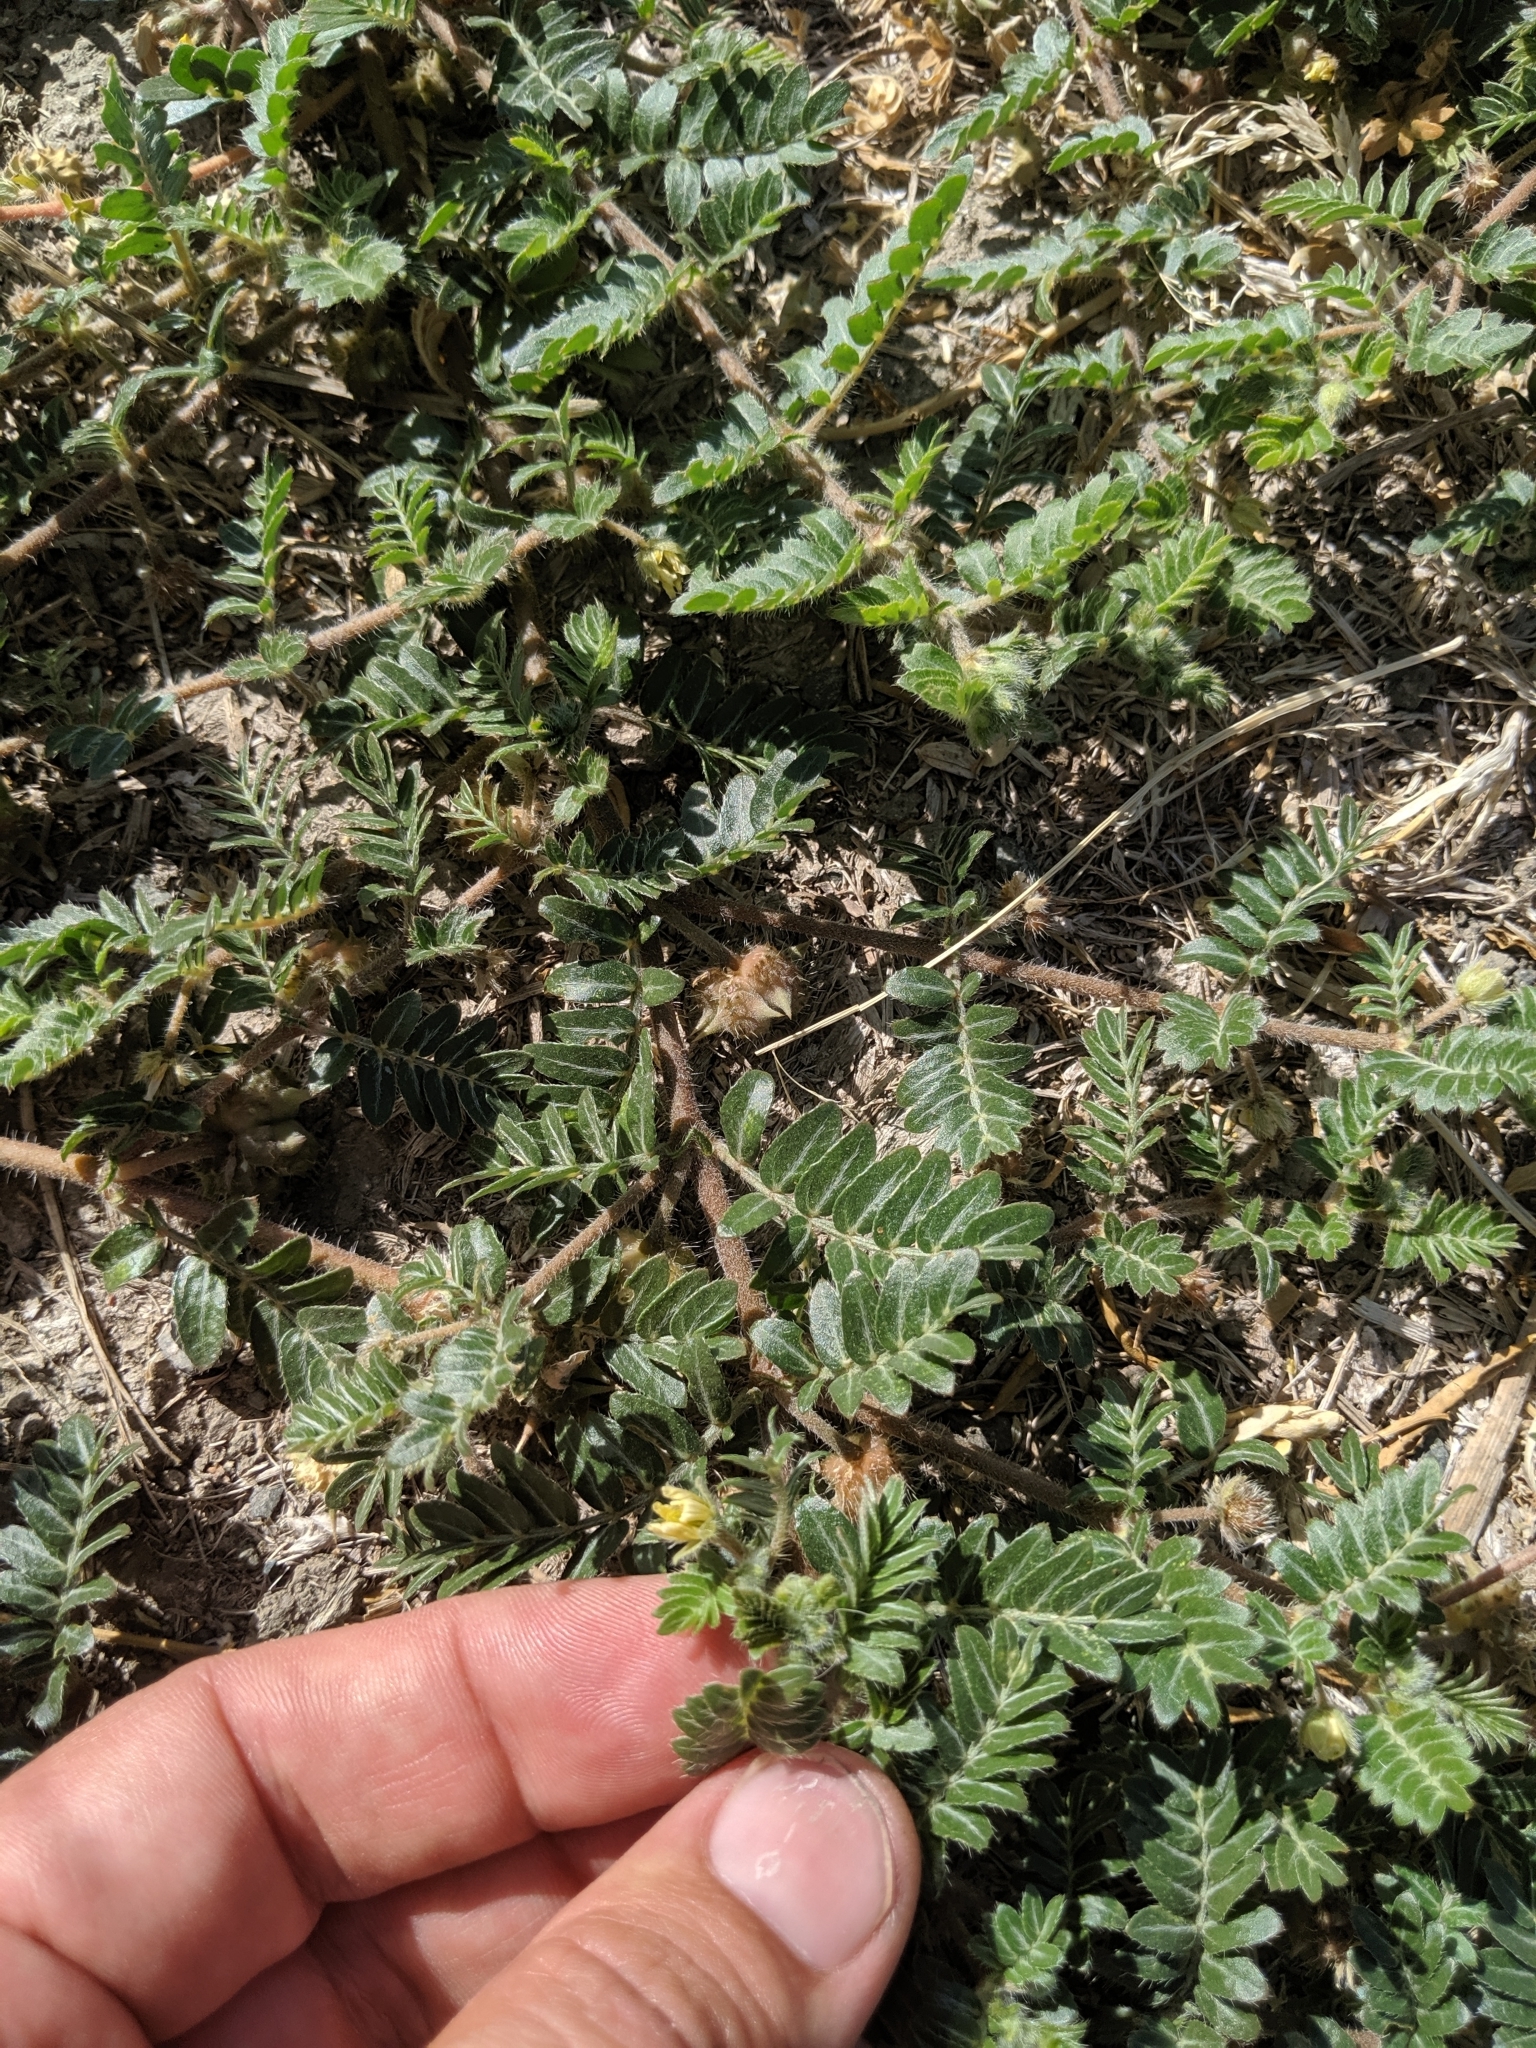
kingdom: Plantae
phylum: Tracheophyta
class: Magnoliopsida
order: Zygophyllales
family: Zygophyllaceae
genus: Tribulus
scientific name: Tribulus terrestris
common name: Puncturevine
